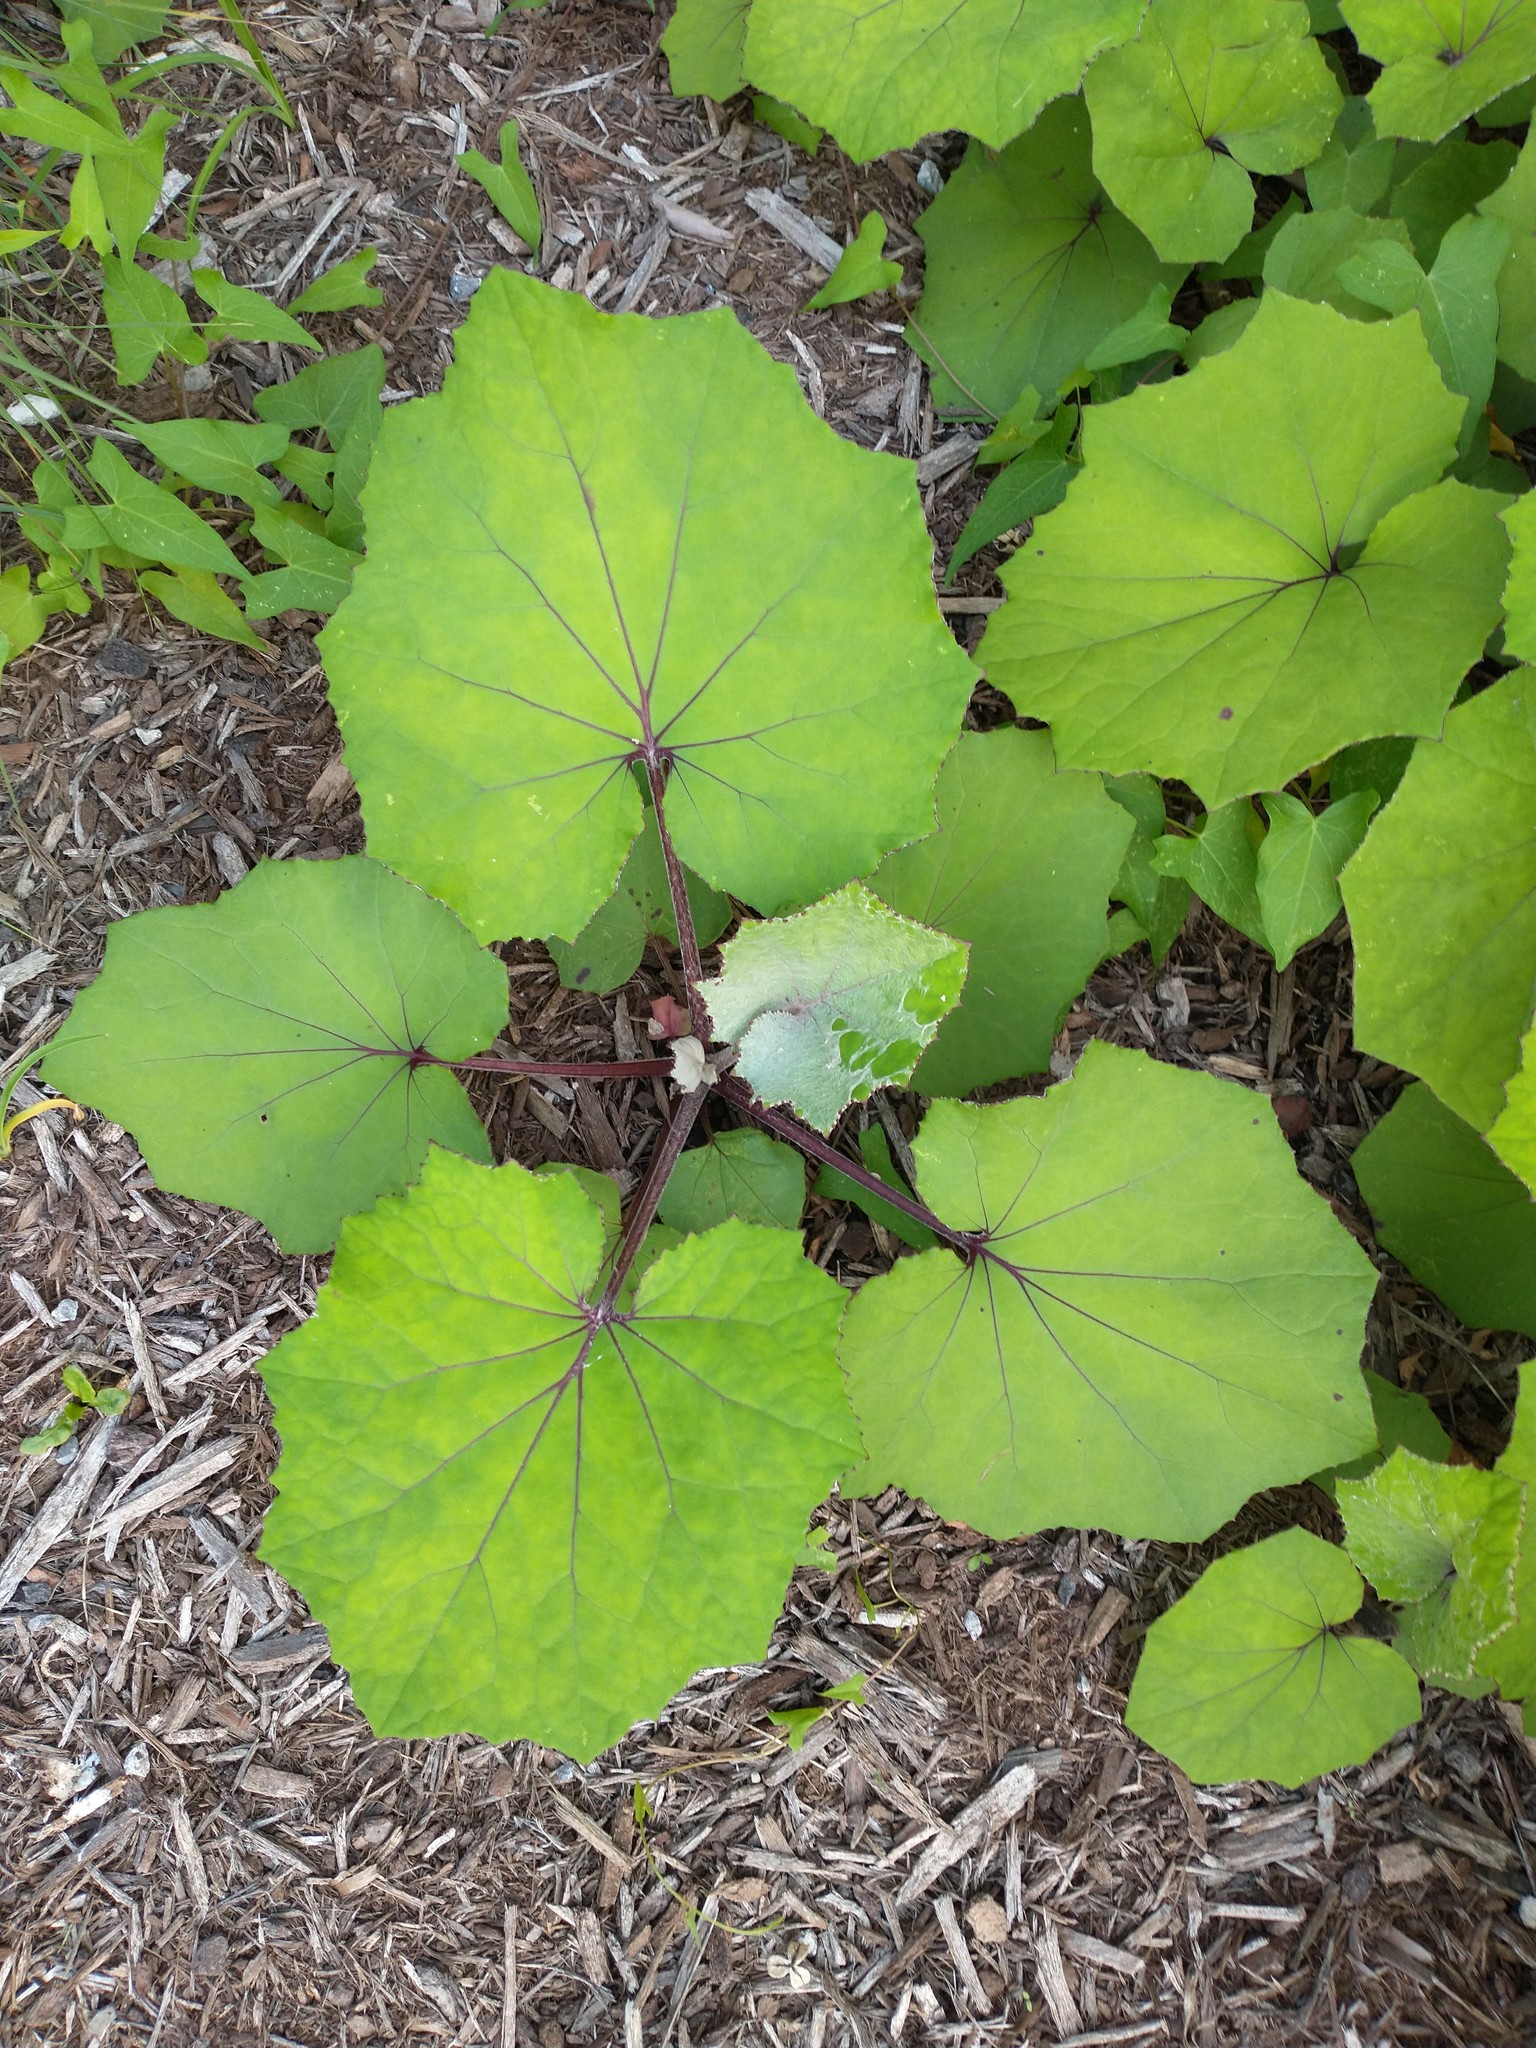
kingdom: Plantae
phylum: Tracheophyta
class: Magnoliopsida
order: Asterales
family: Asteraceae
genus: Tussilago
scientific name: Tussilago farfara
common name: Coltsfoot
